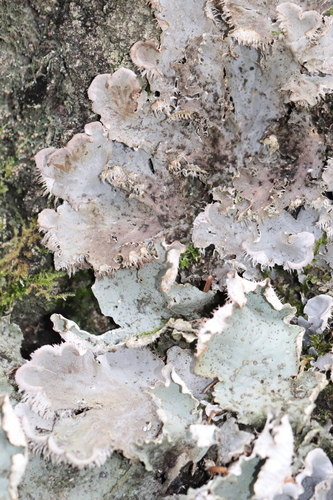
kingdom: Fungi
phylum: Ascomycota
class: Lecanoromycetes
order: Peltigerales
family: Peltigeraceae
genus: Peltigera
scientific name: Peltigera aphthosa
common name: Common freckle pelt lichen
